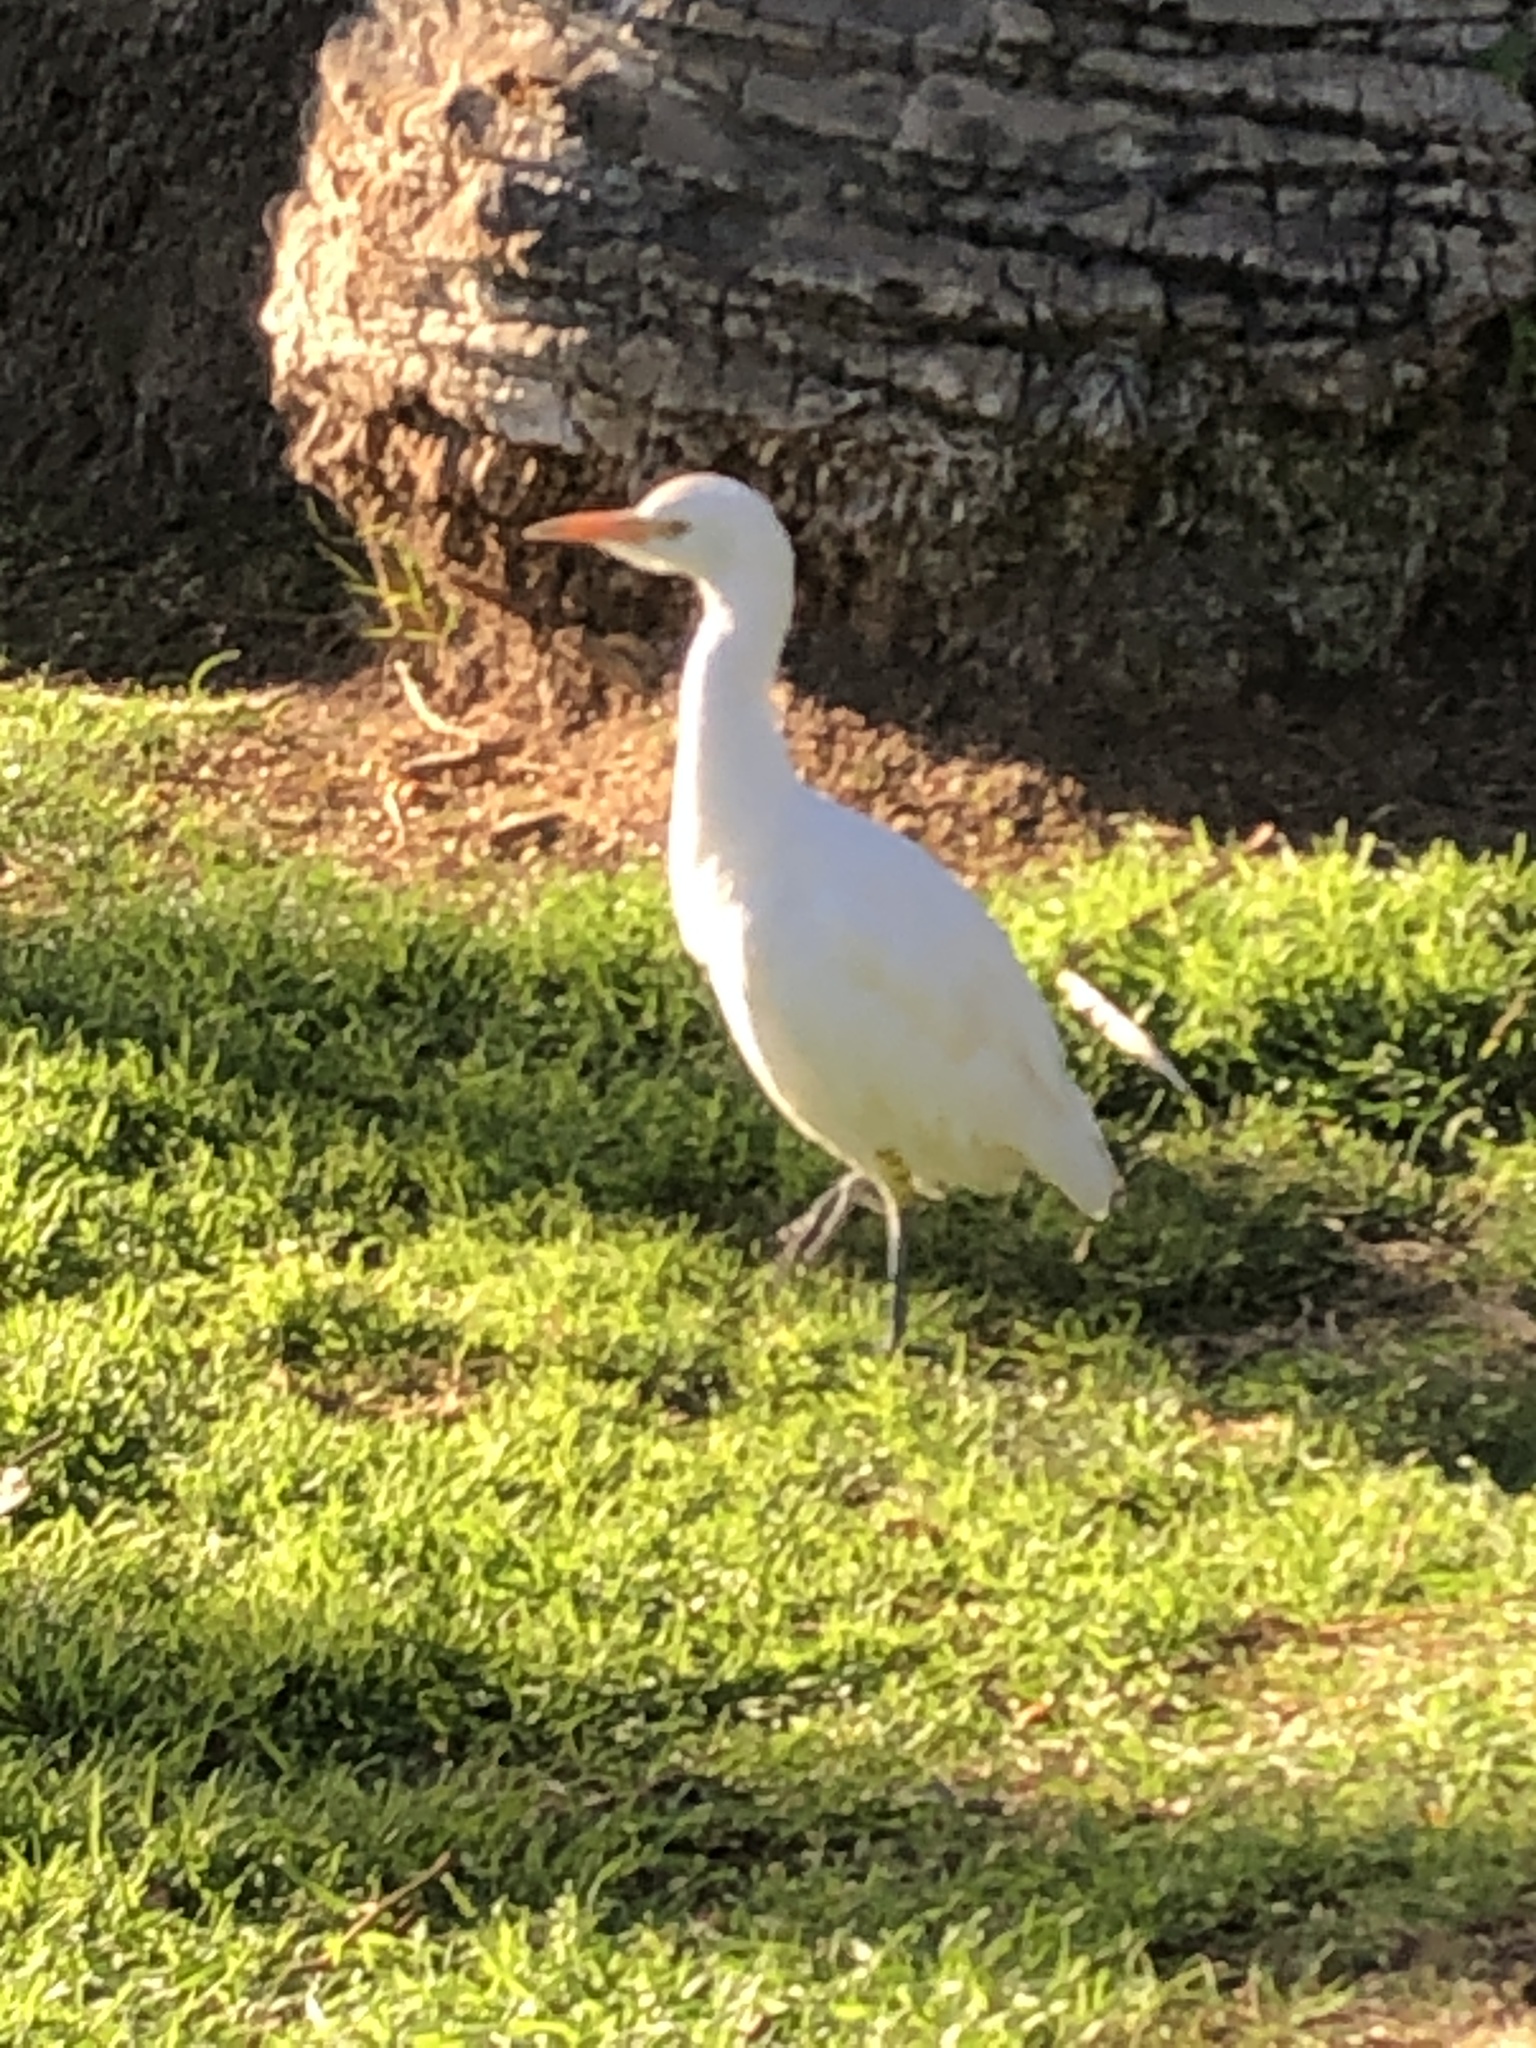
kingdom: Animalia
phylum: Chordata
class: Aves
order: Pelecaniformes
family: Ardeidae
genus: Bubulcus
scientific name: Bubulcus ibis
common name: Cattle egret
